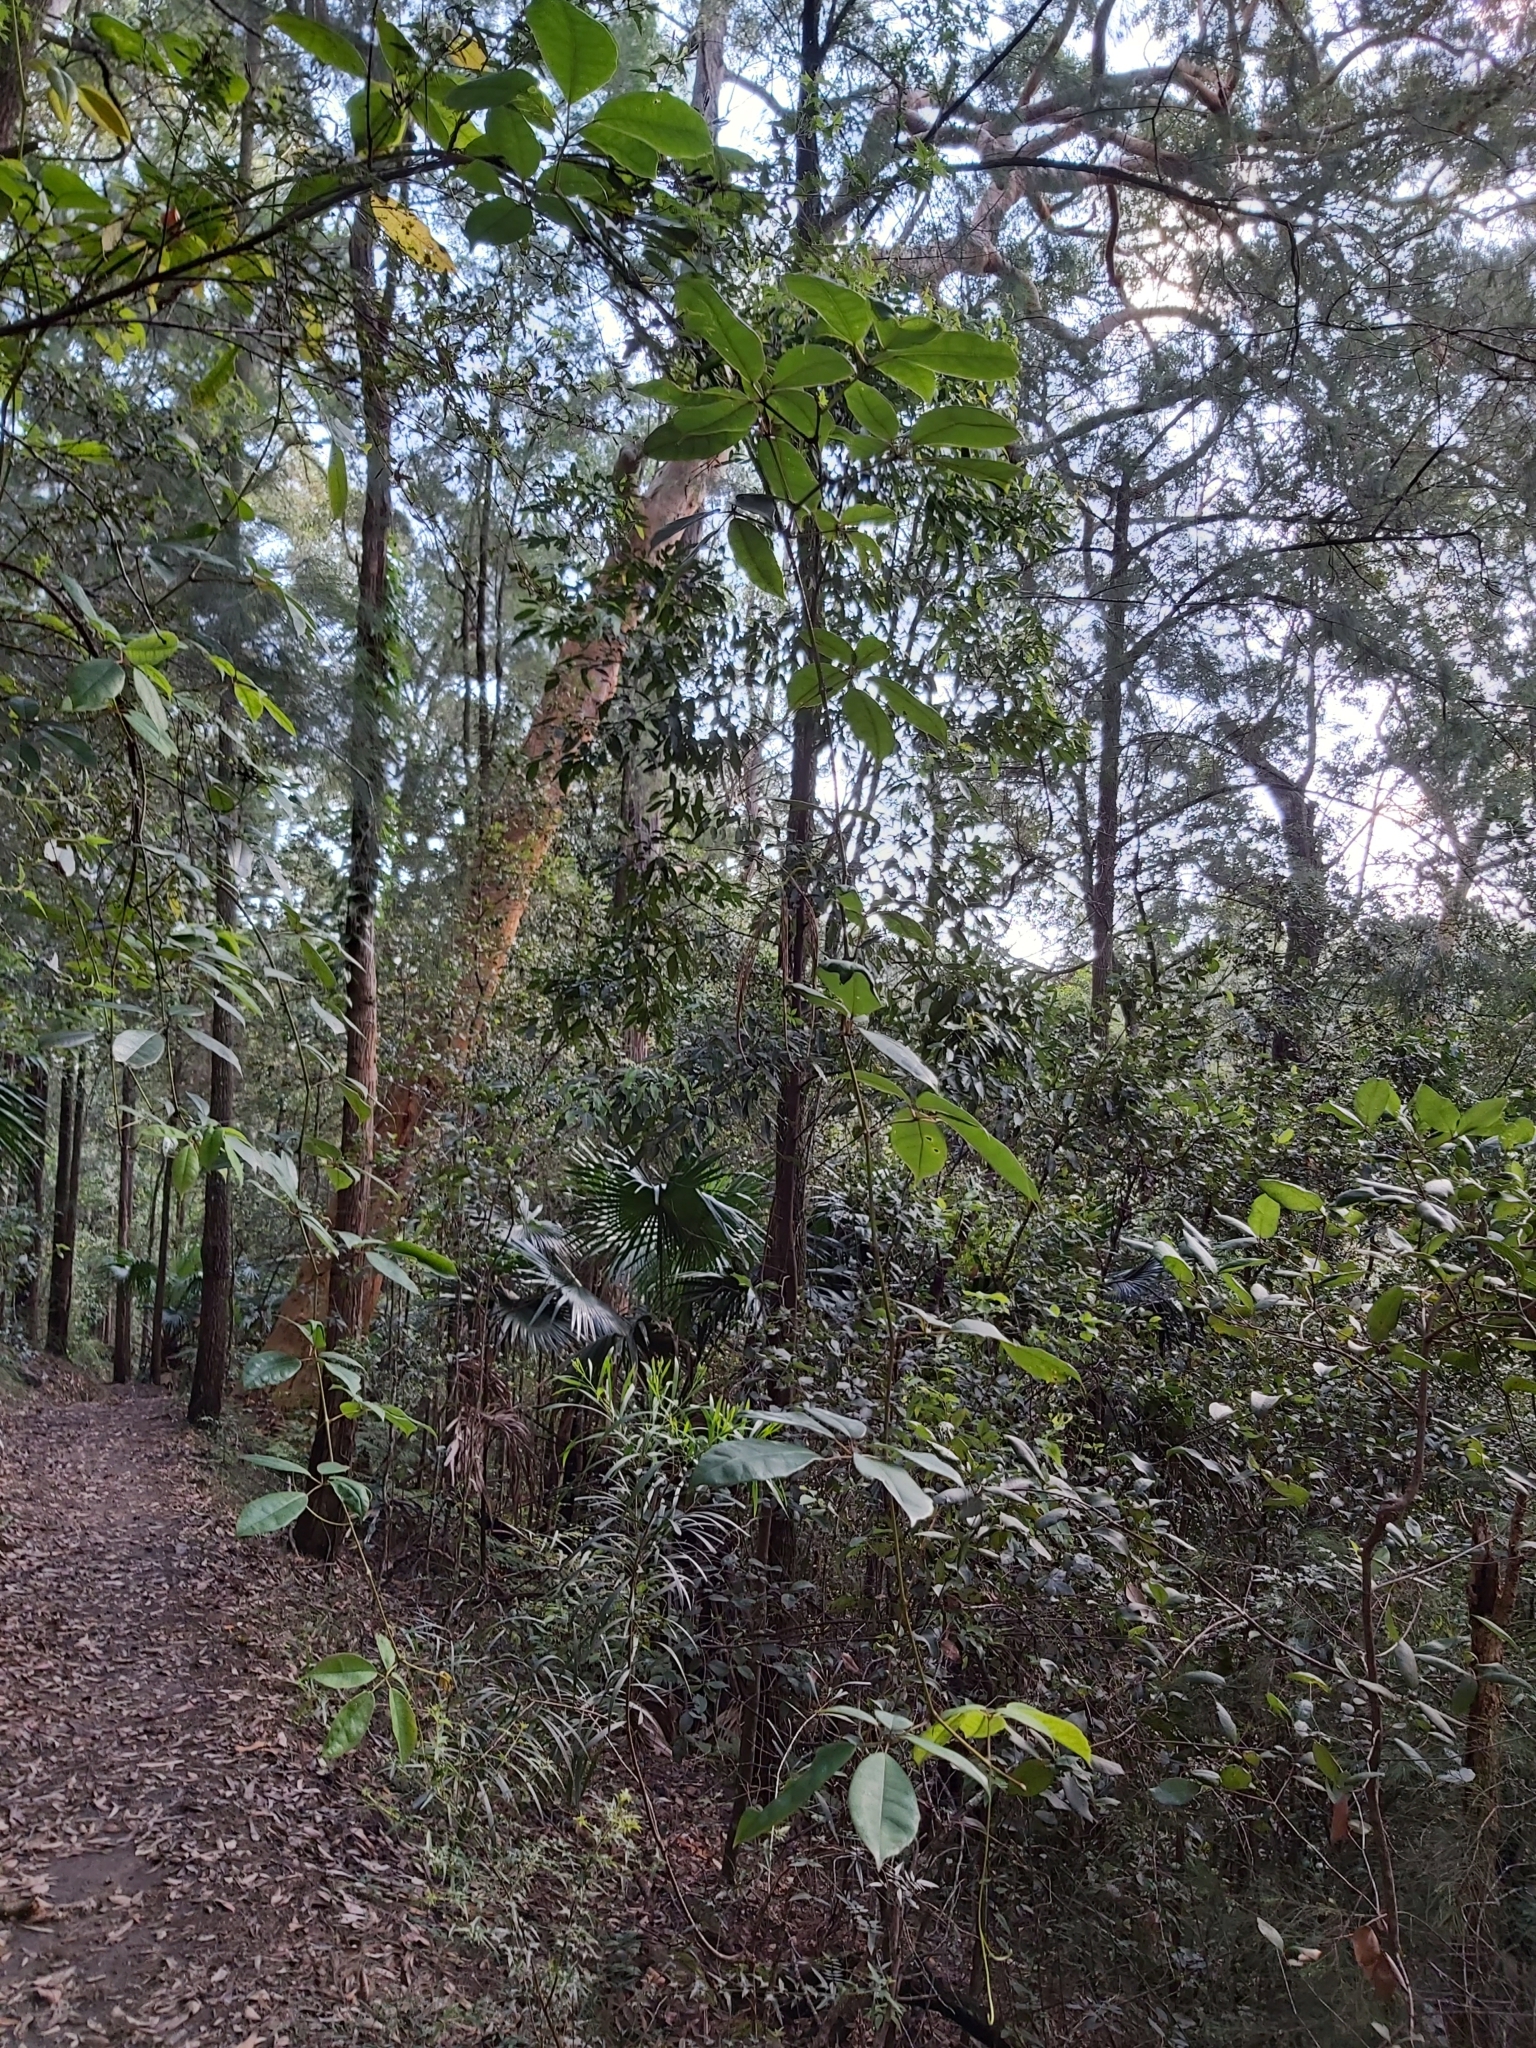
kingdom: Plantae
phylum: Tracheophyta
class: Magnoliopsida
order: Vitales
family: Vitaceae
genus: Nothocissus
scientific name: Nothocissus hypoglauca
